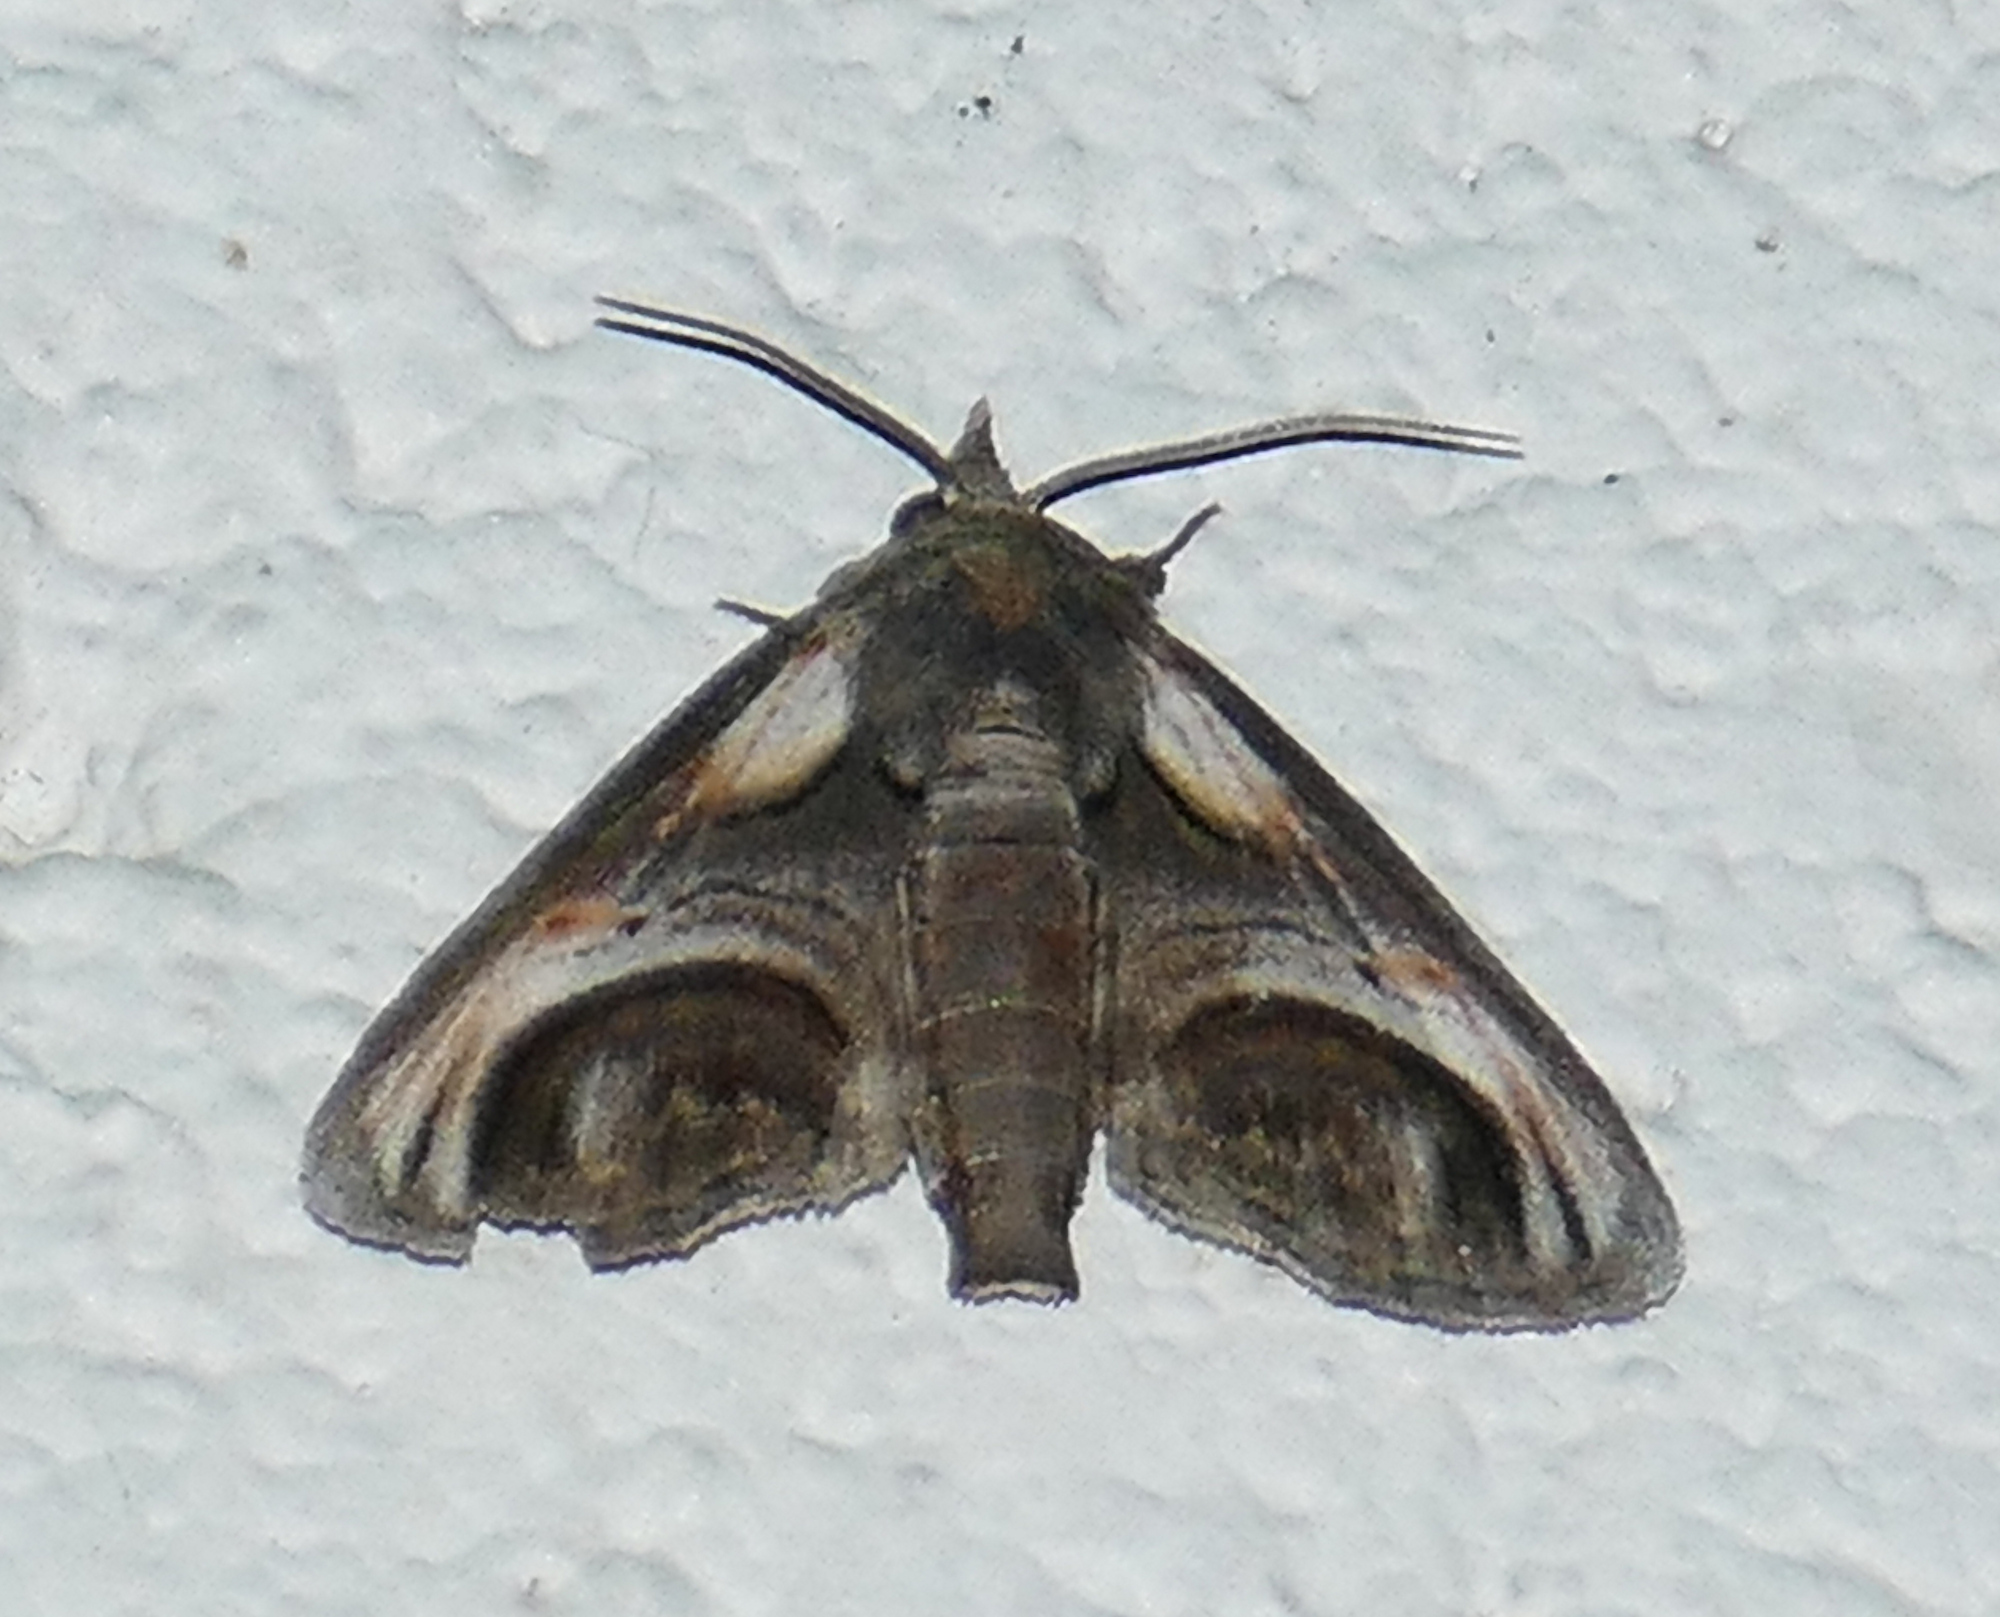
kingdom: Animalia
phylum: Arthropoda
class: Insecta
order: Lepidoptera
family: Euteliidae
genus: Paectes
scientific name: Paectes oculatrix
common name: Eyed paectes moth
